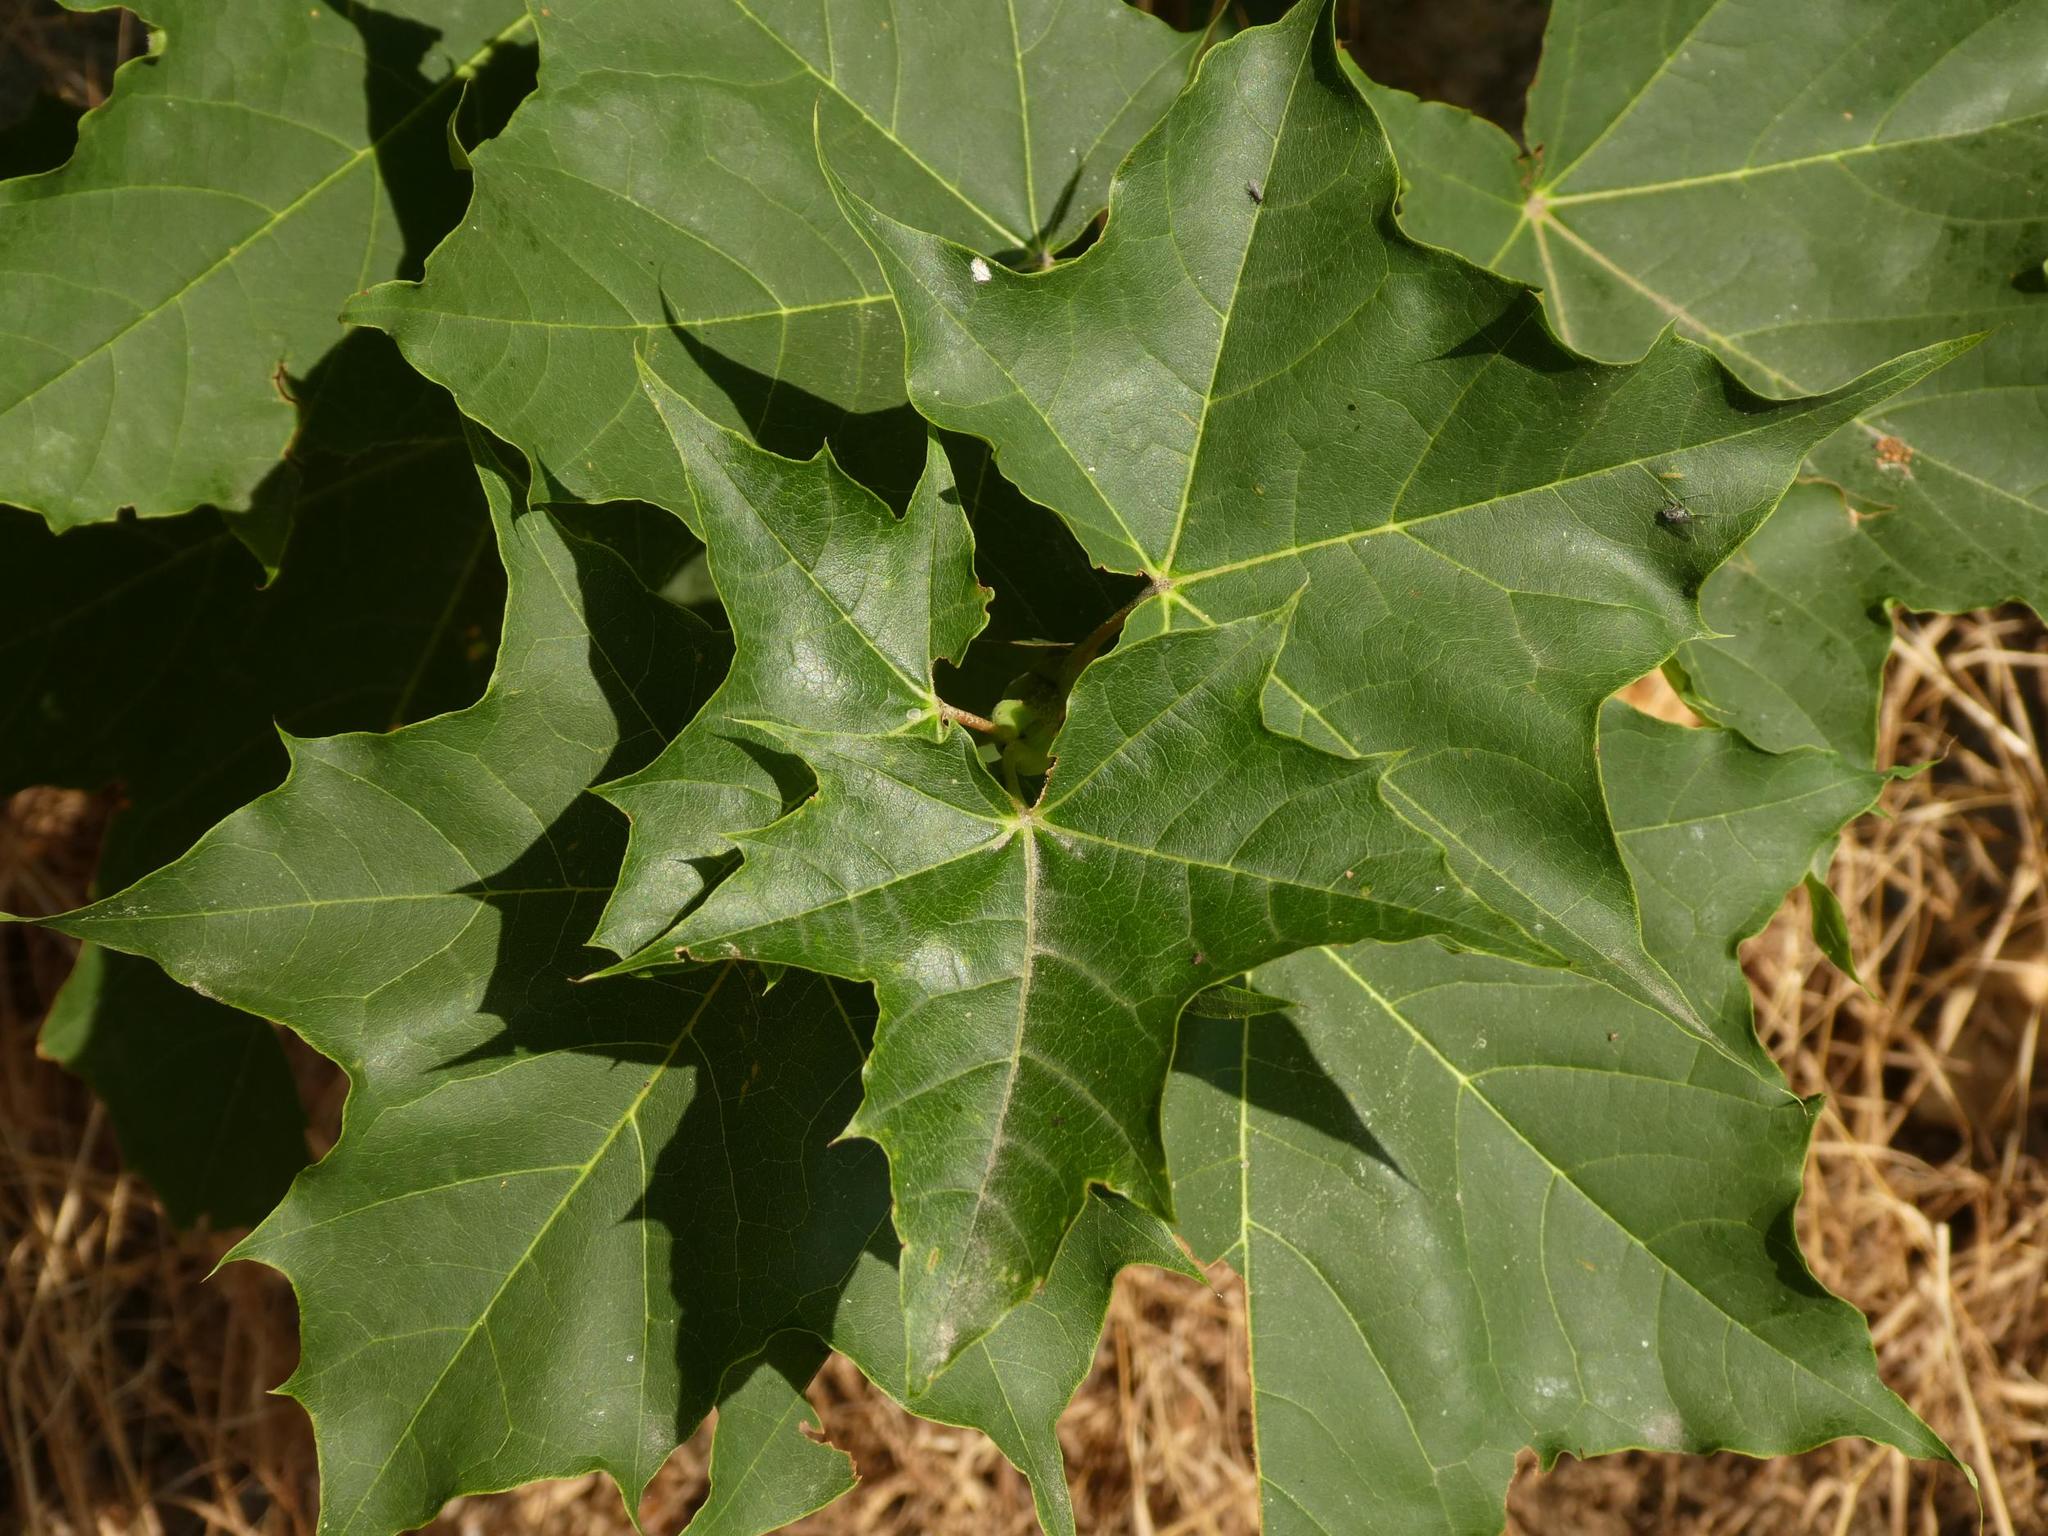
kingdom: Plantae
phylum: Tracheophyta
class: Magnoliopsida
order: Sapindales
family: Sapindaceae
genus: Acer
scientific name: Acer platanoides
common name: Norway maple
